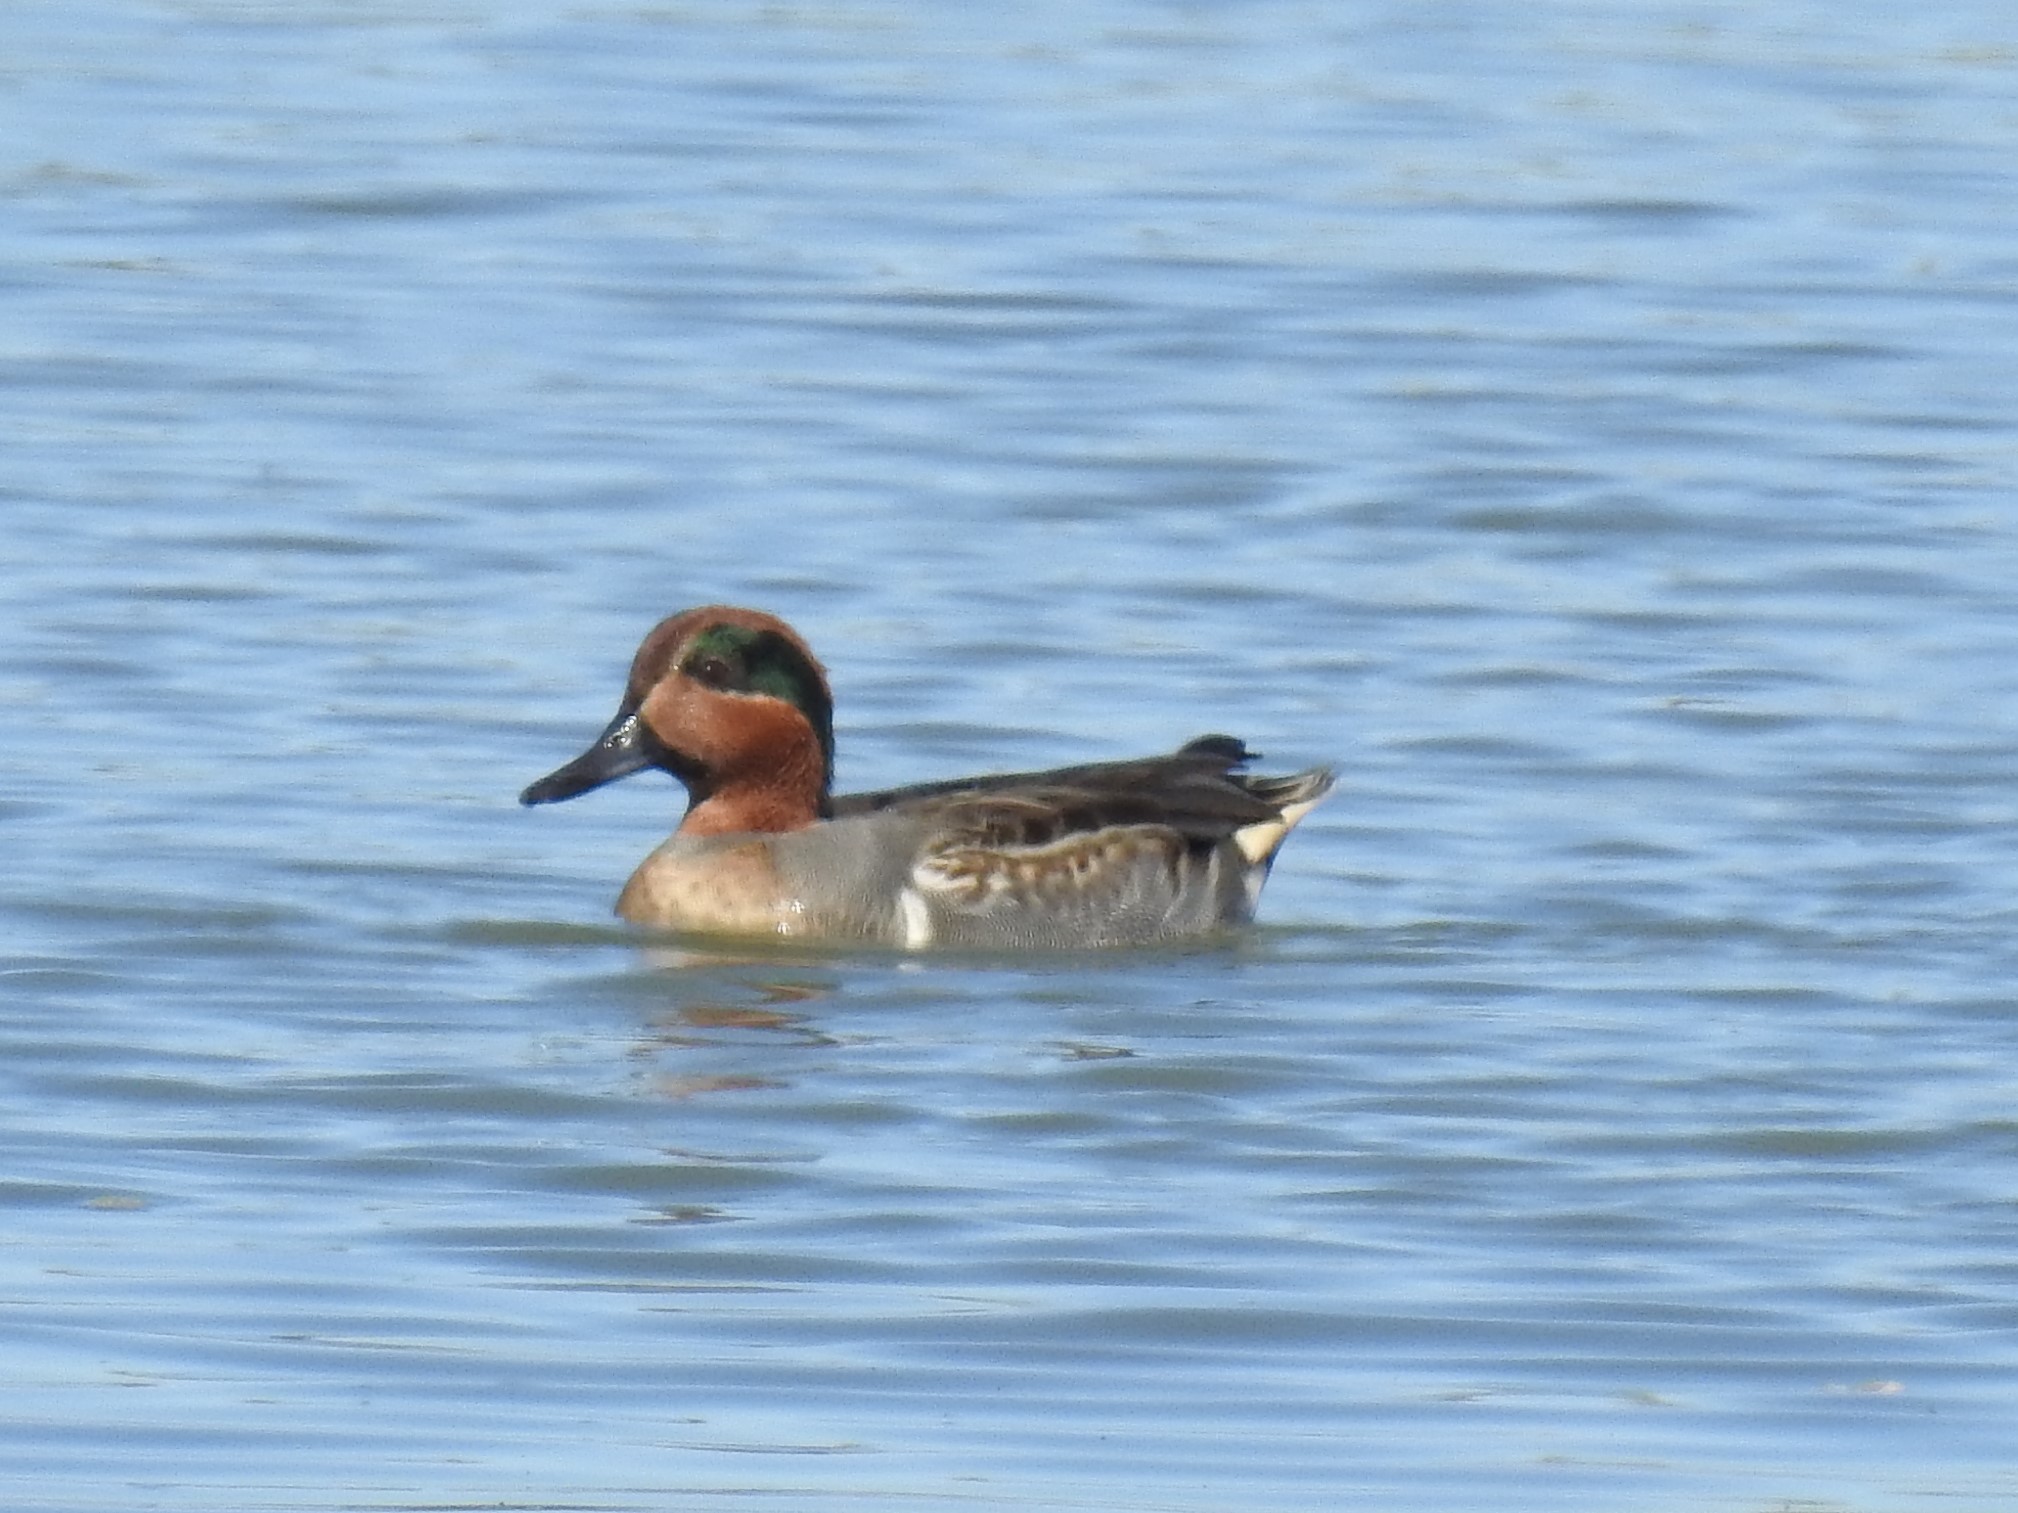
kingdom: Animalia
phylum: Chordata
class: Aves
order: Anseriformes
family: Anatidae
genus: Anas
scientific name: Anas crecca
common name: Eurasian teal
